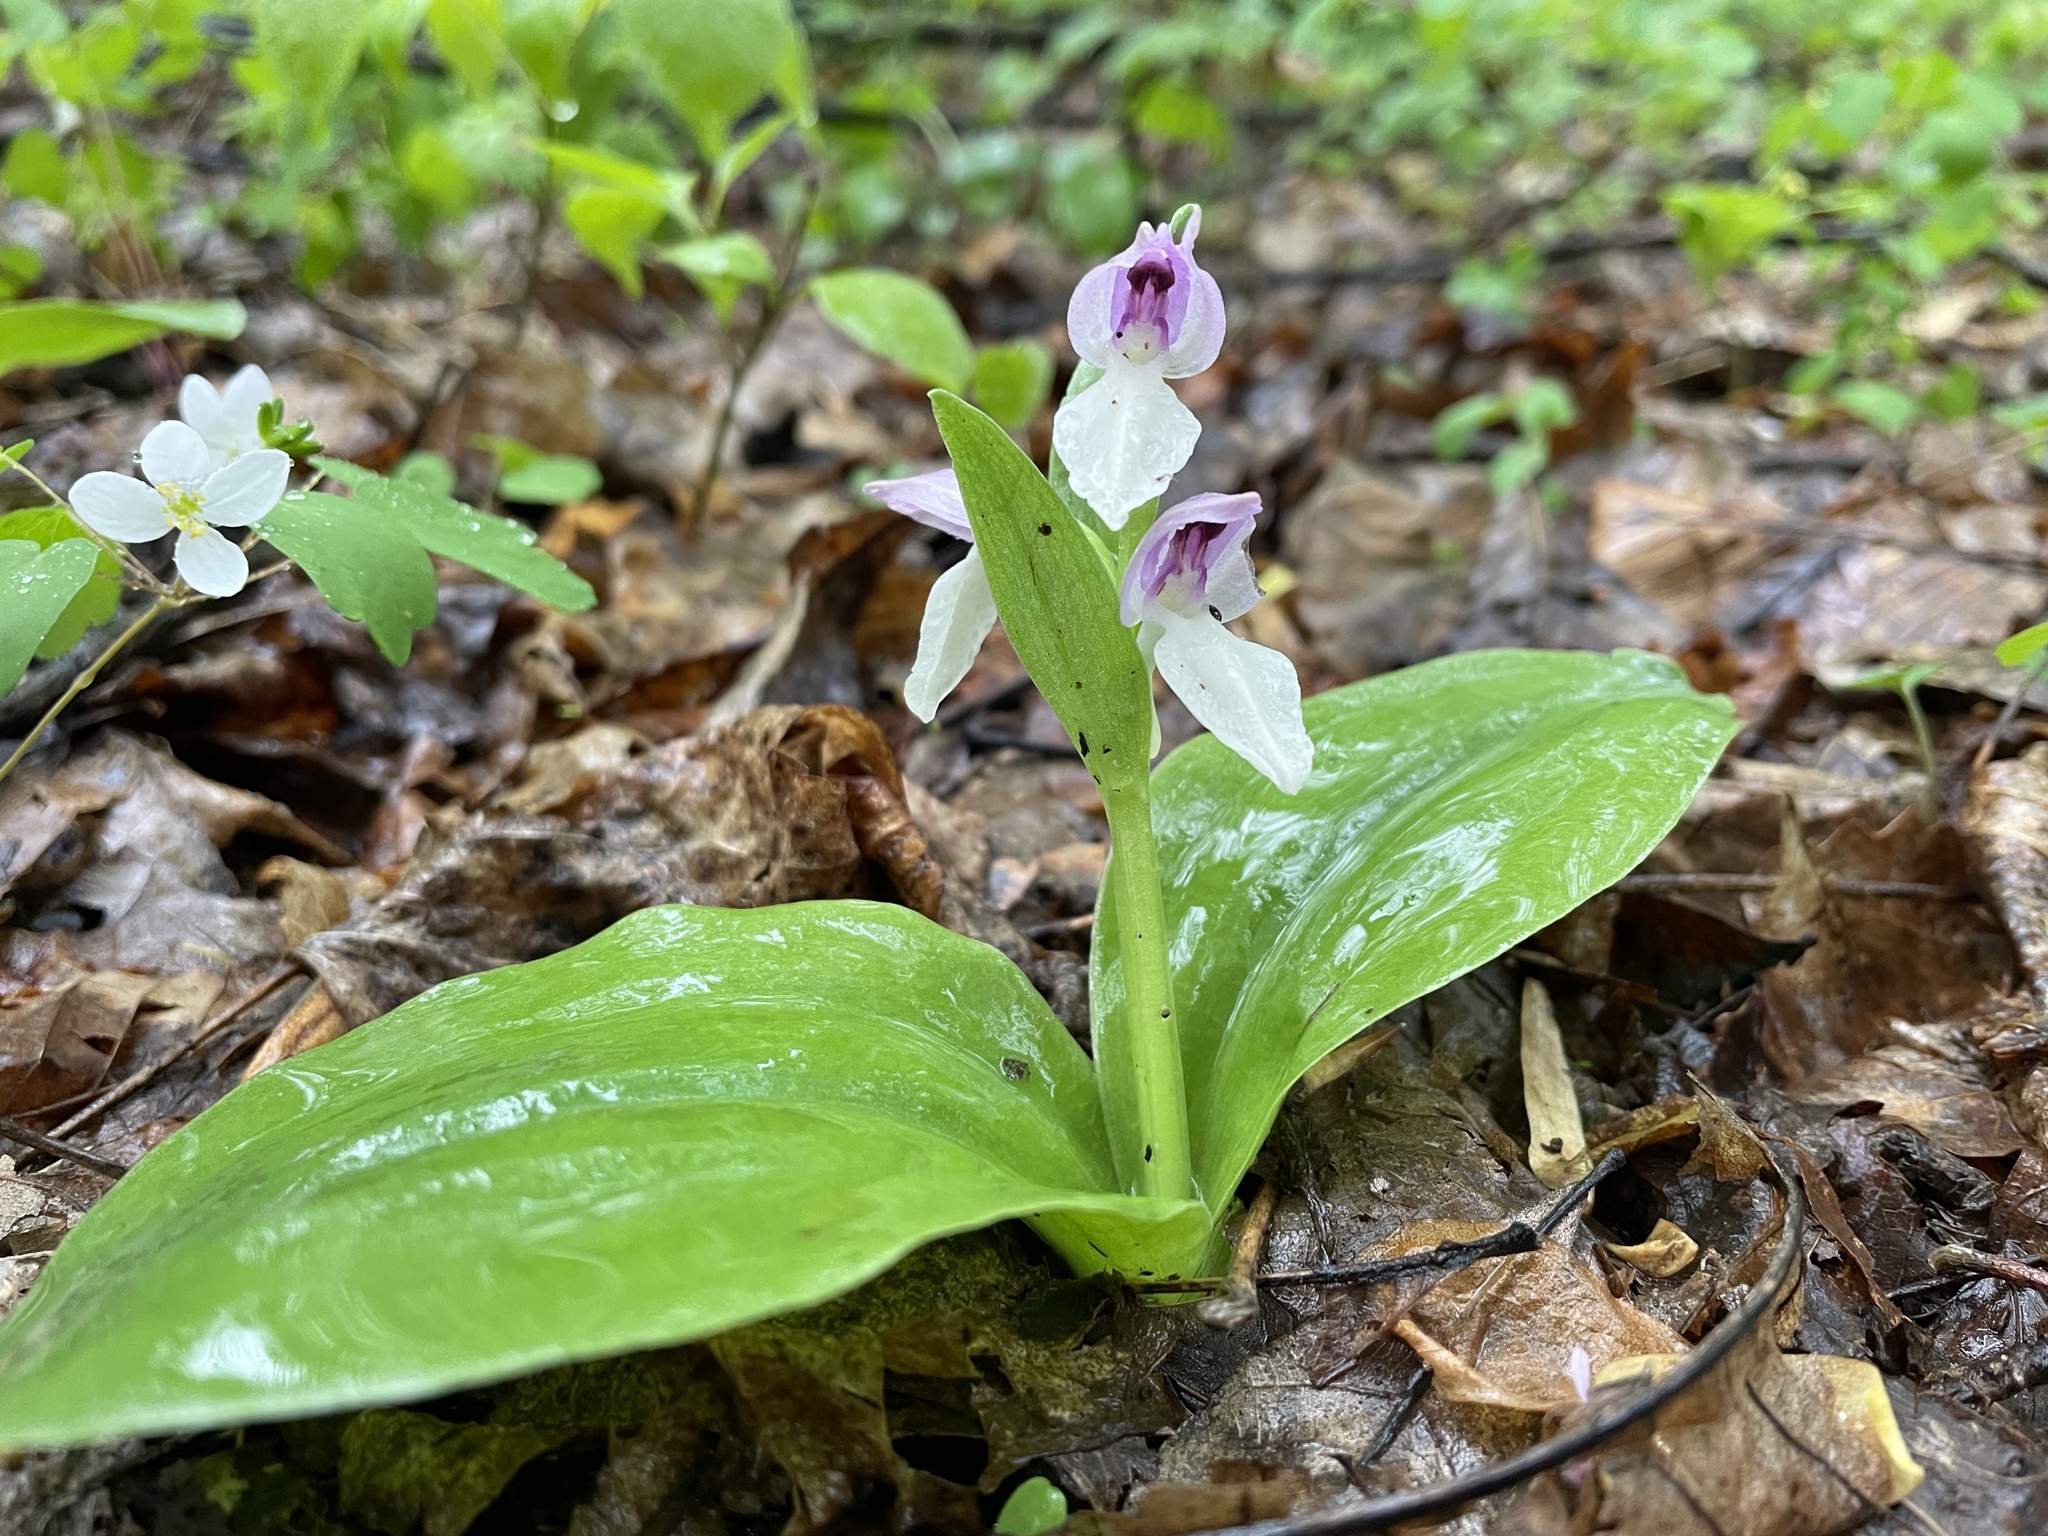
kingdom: Plantae
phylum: Tracheophyta
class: Liliopsida
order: Asparagales
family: Orchidaceae
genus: Galearis
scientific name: Galearis spectabilis
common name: Purple-hooded orchis
